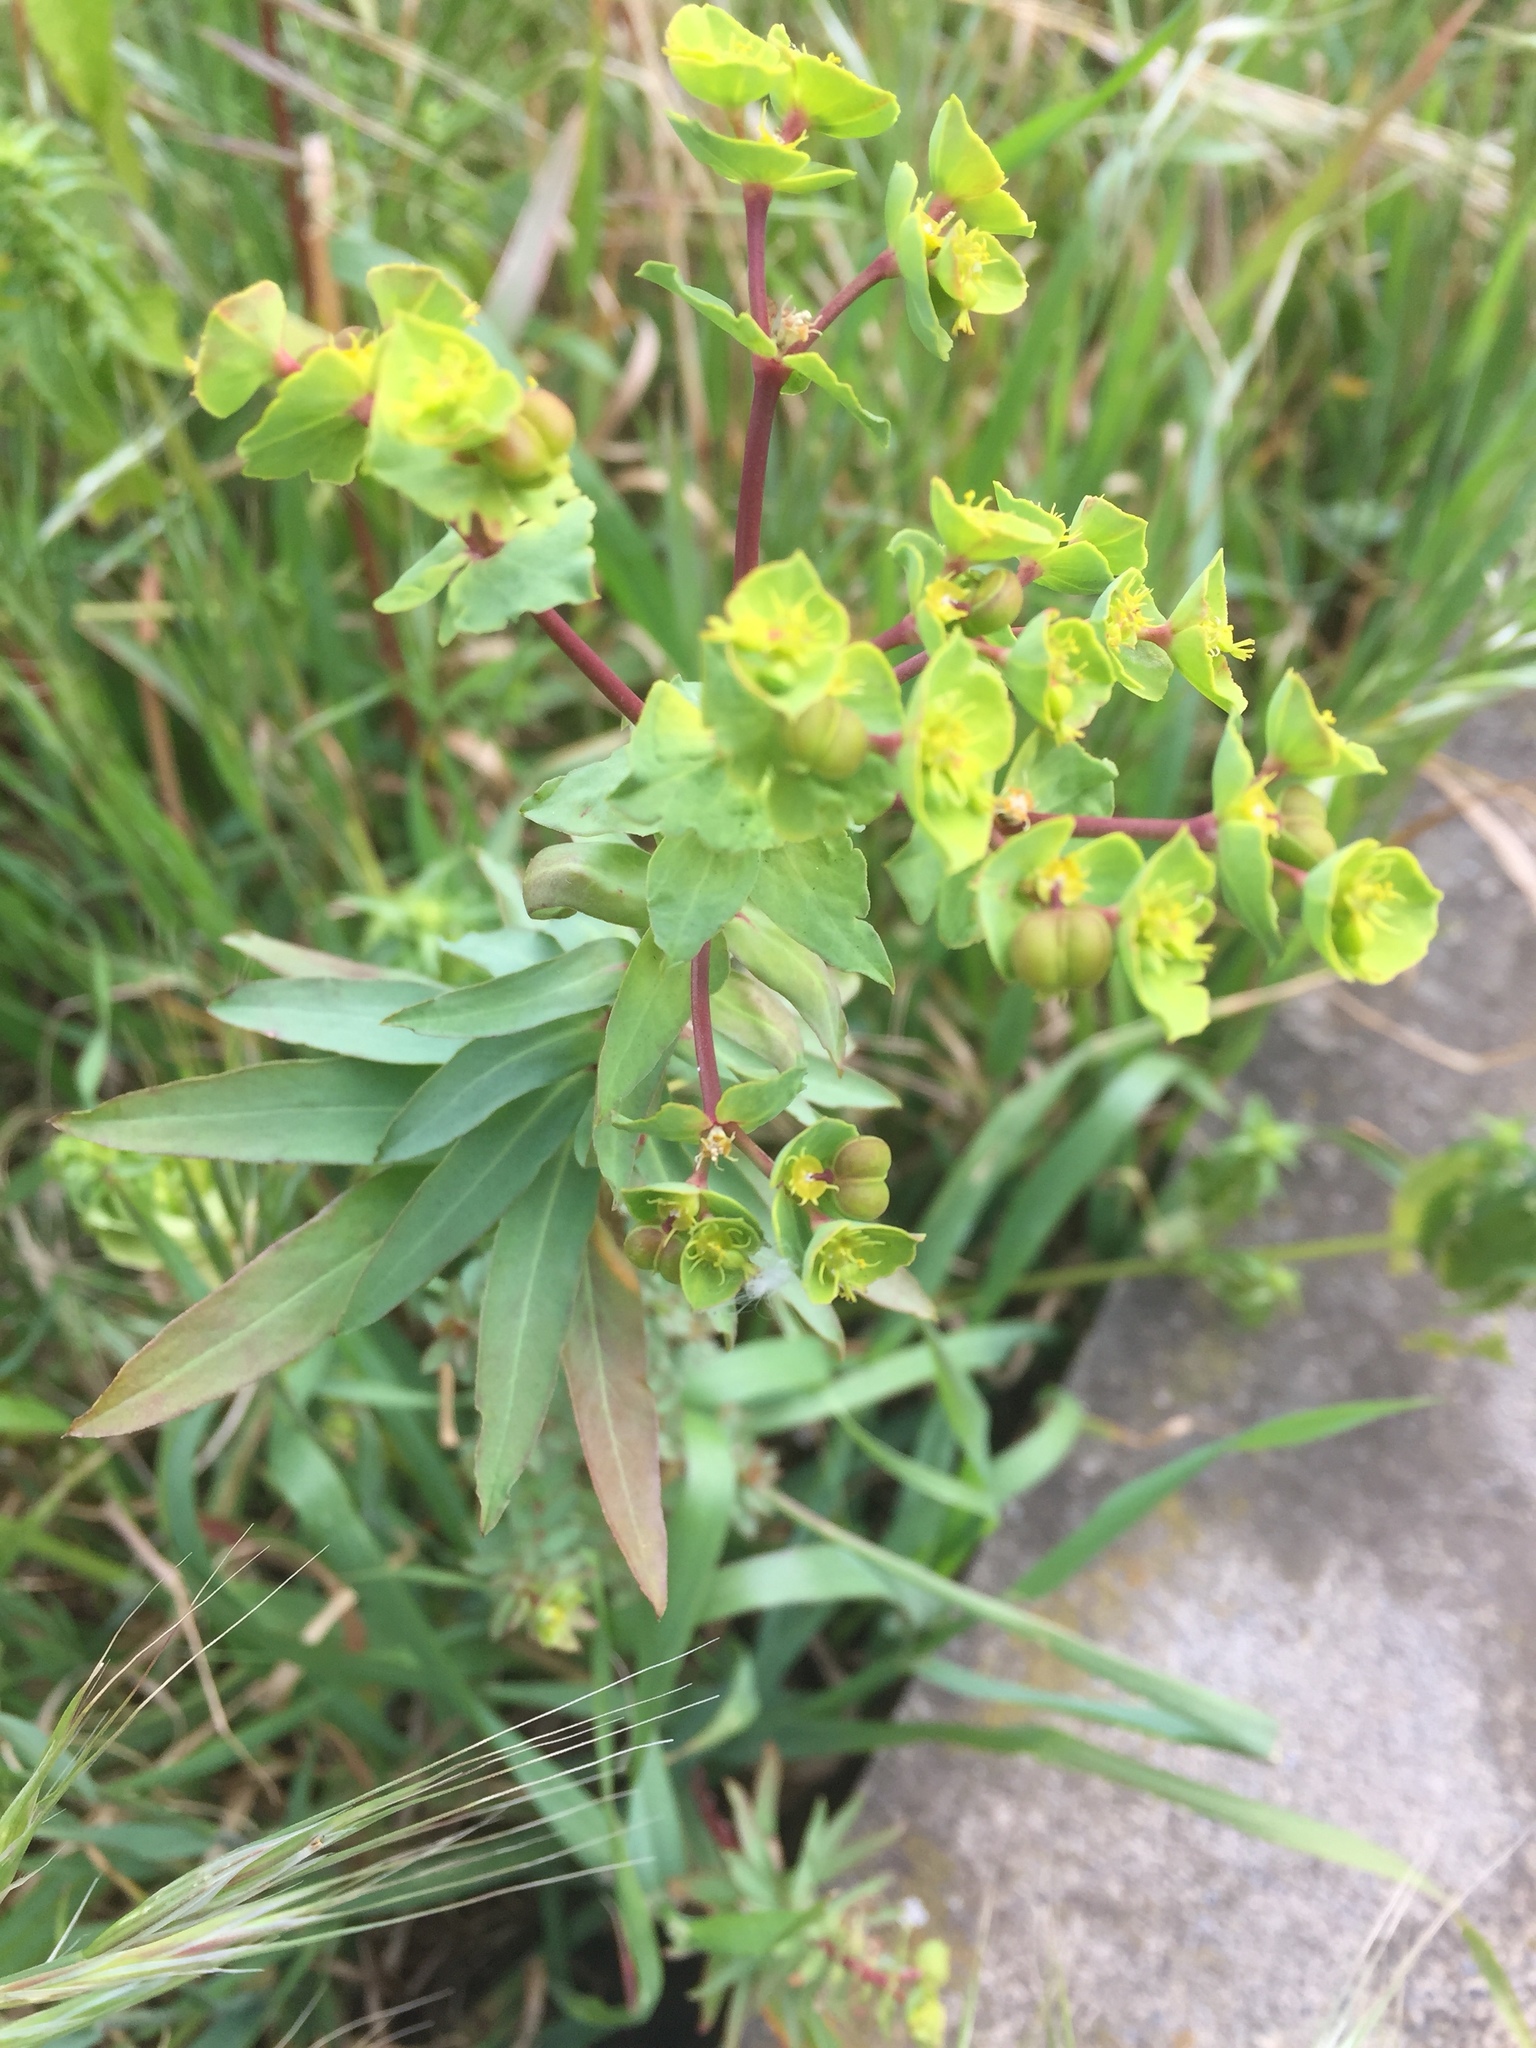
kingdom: Plantae
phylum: Tracheophyta
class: Magnoliopsida
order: Malpighiales
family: Euphorbiaceae
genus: Euphorbia
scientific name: Euphorbia terracina
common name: Geraldton carnation weed
